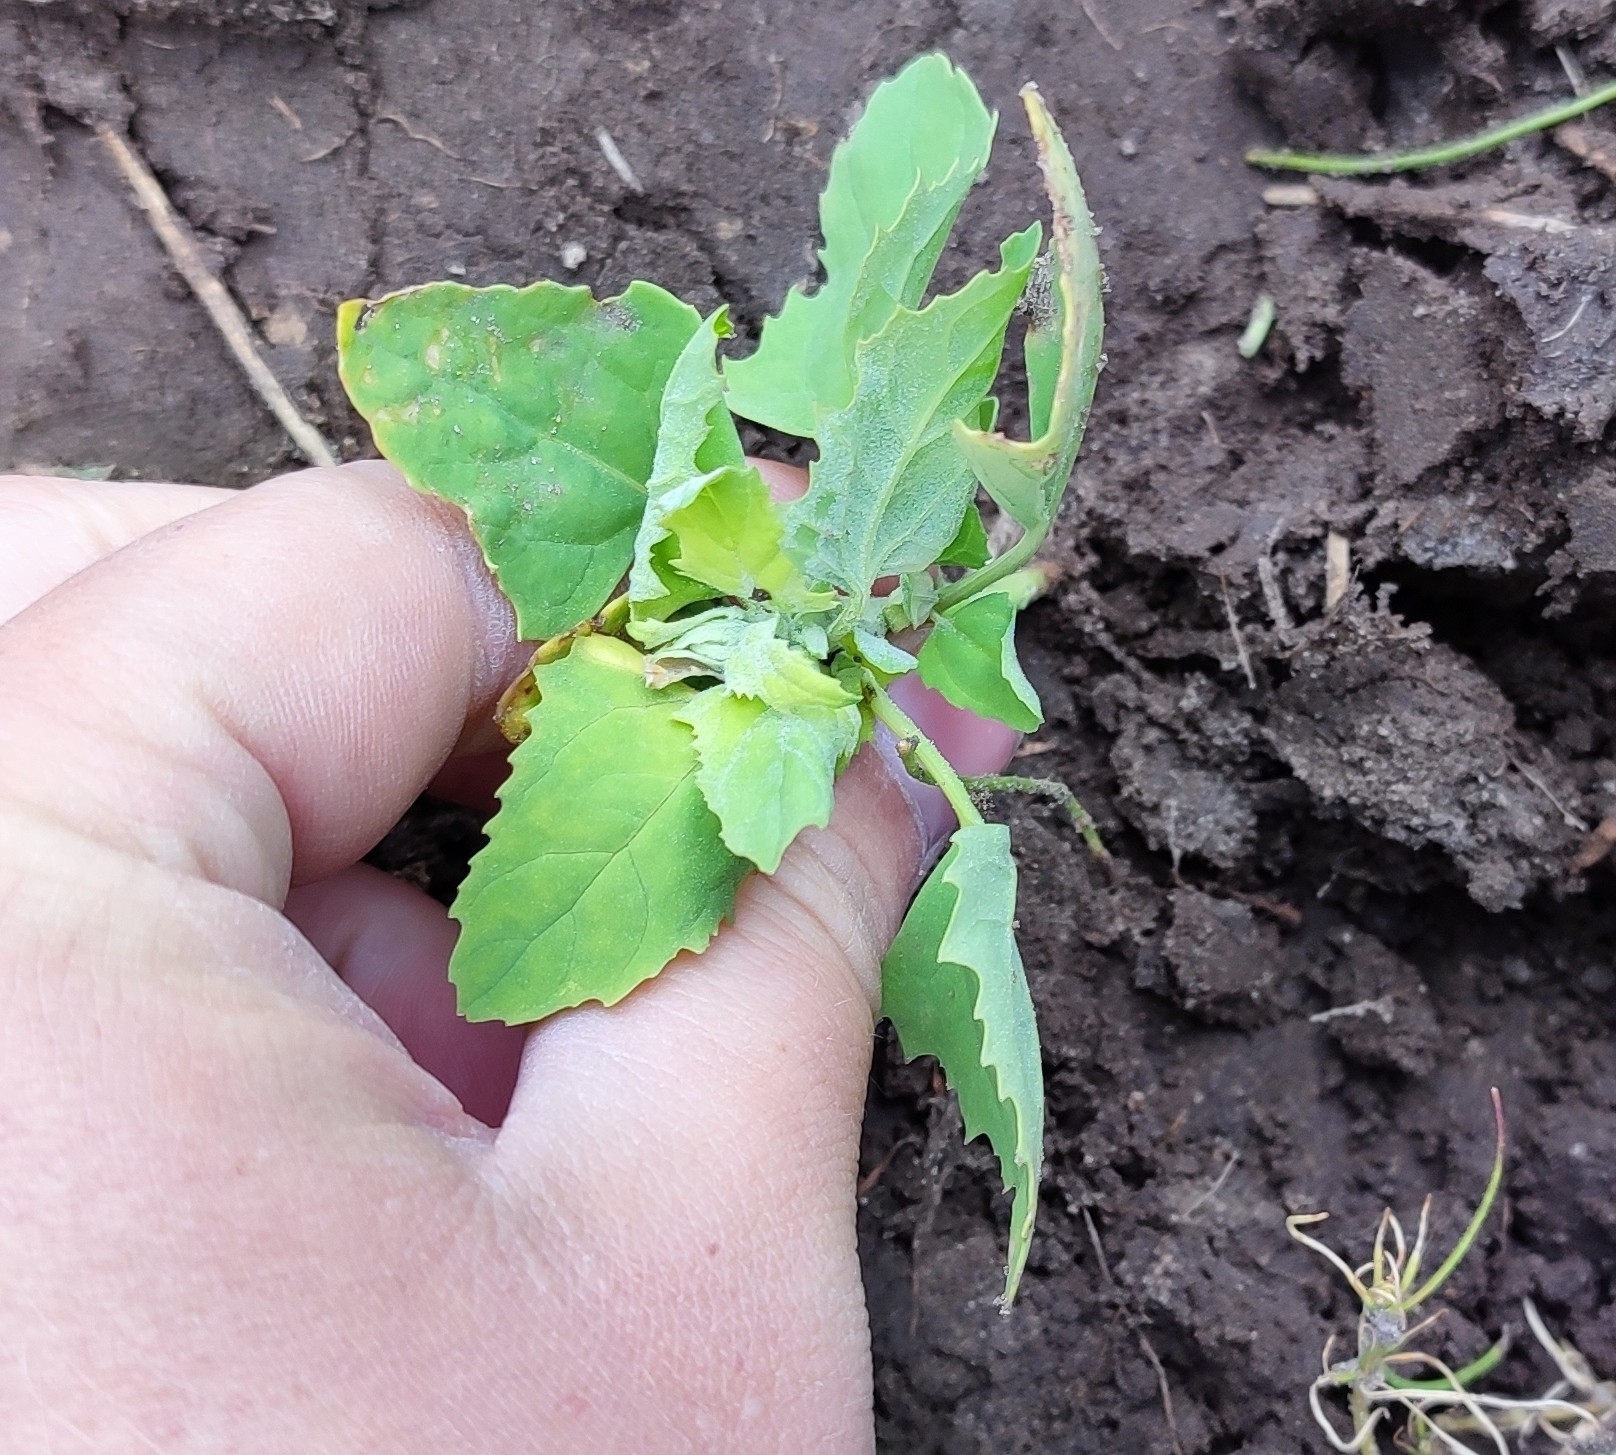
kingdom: Plantae
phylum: Tracheophyta
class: Magnoliopsida
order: Caryophyllales
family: Amaranthaceae
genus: Chenopodium
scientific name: Chenopodium album
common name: Fat-hen
